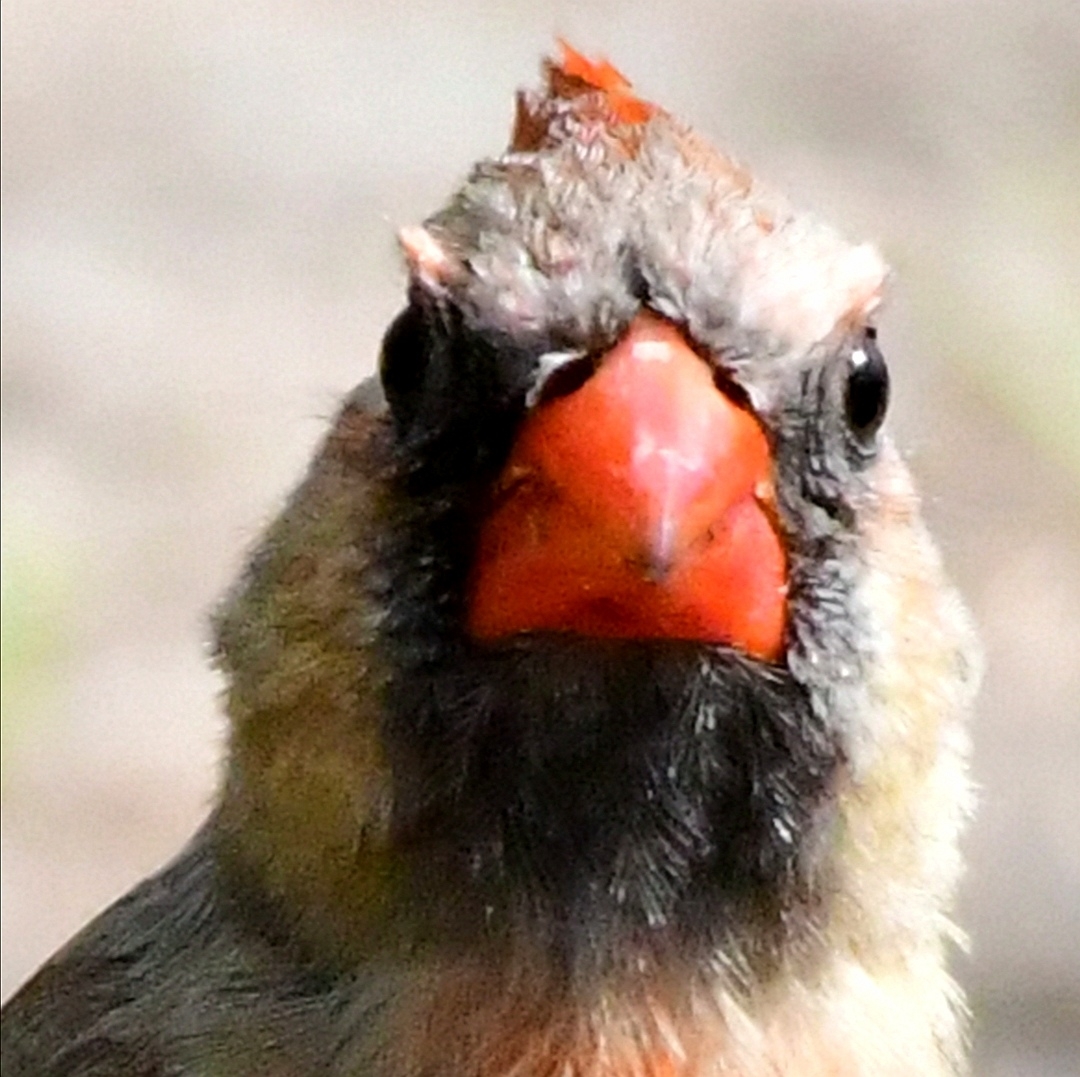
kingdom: Animalia
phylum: Chordata
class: Aves
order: Passeriformes
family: Cardinalidae
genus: Cardinalis
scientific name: Cardinalis cardinalis
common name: Northern cardinal
